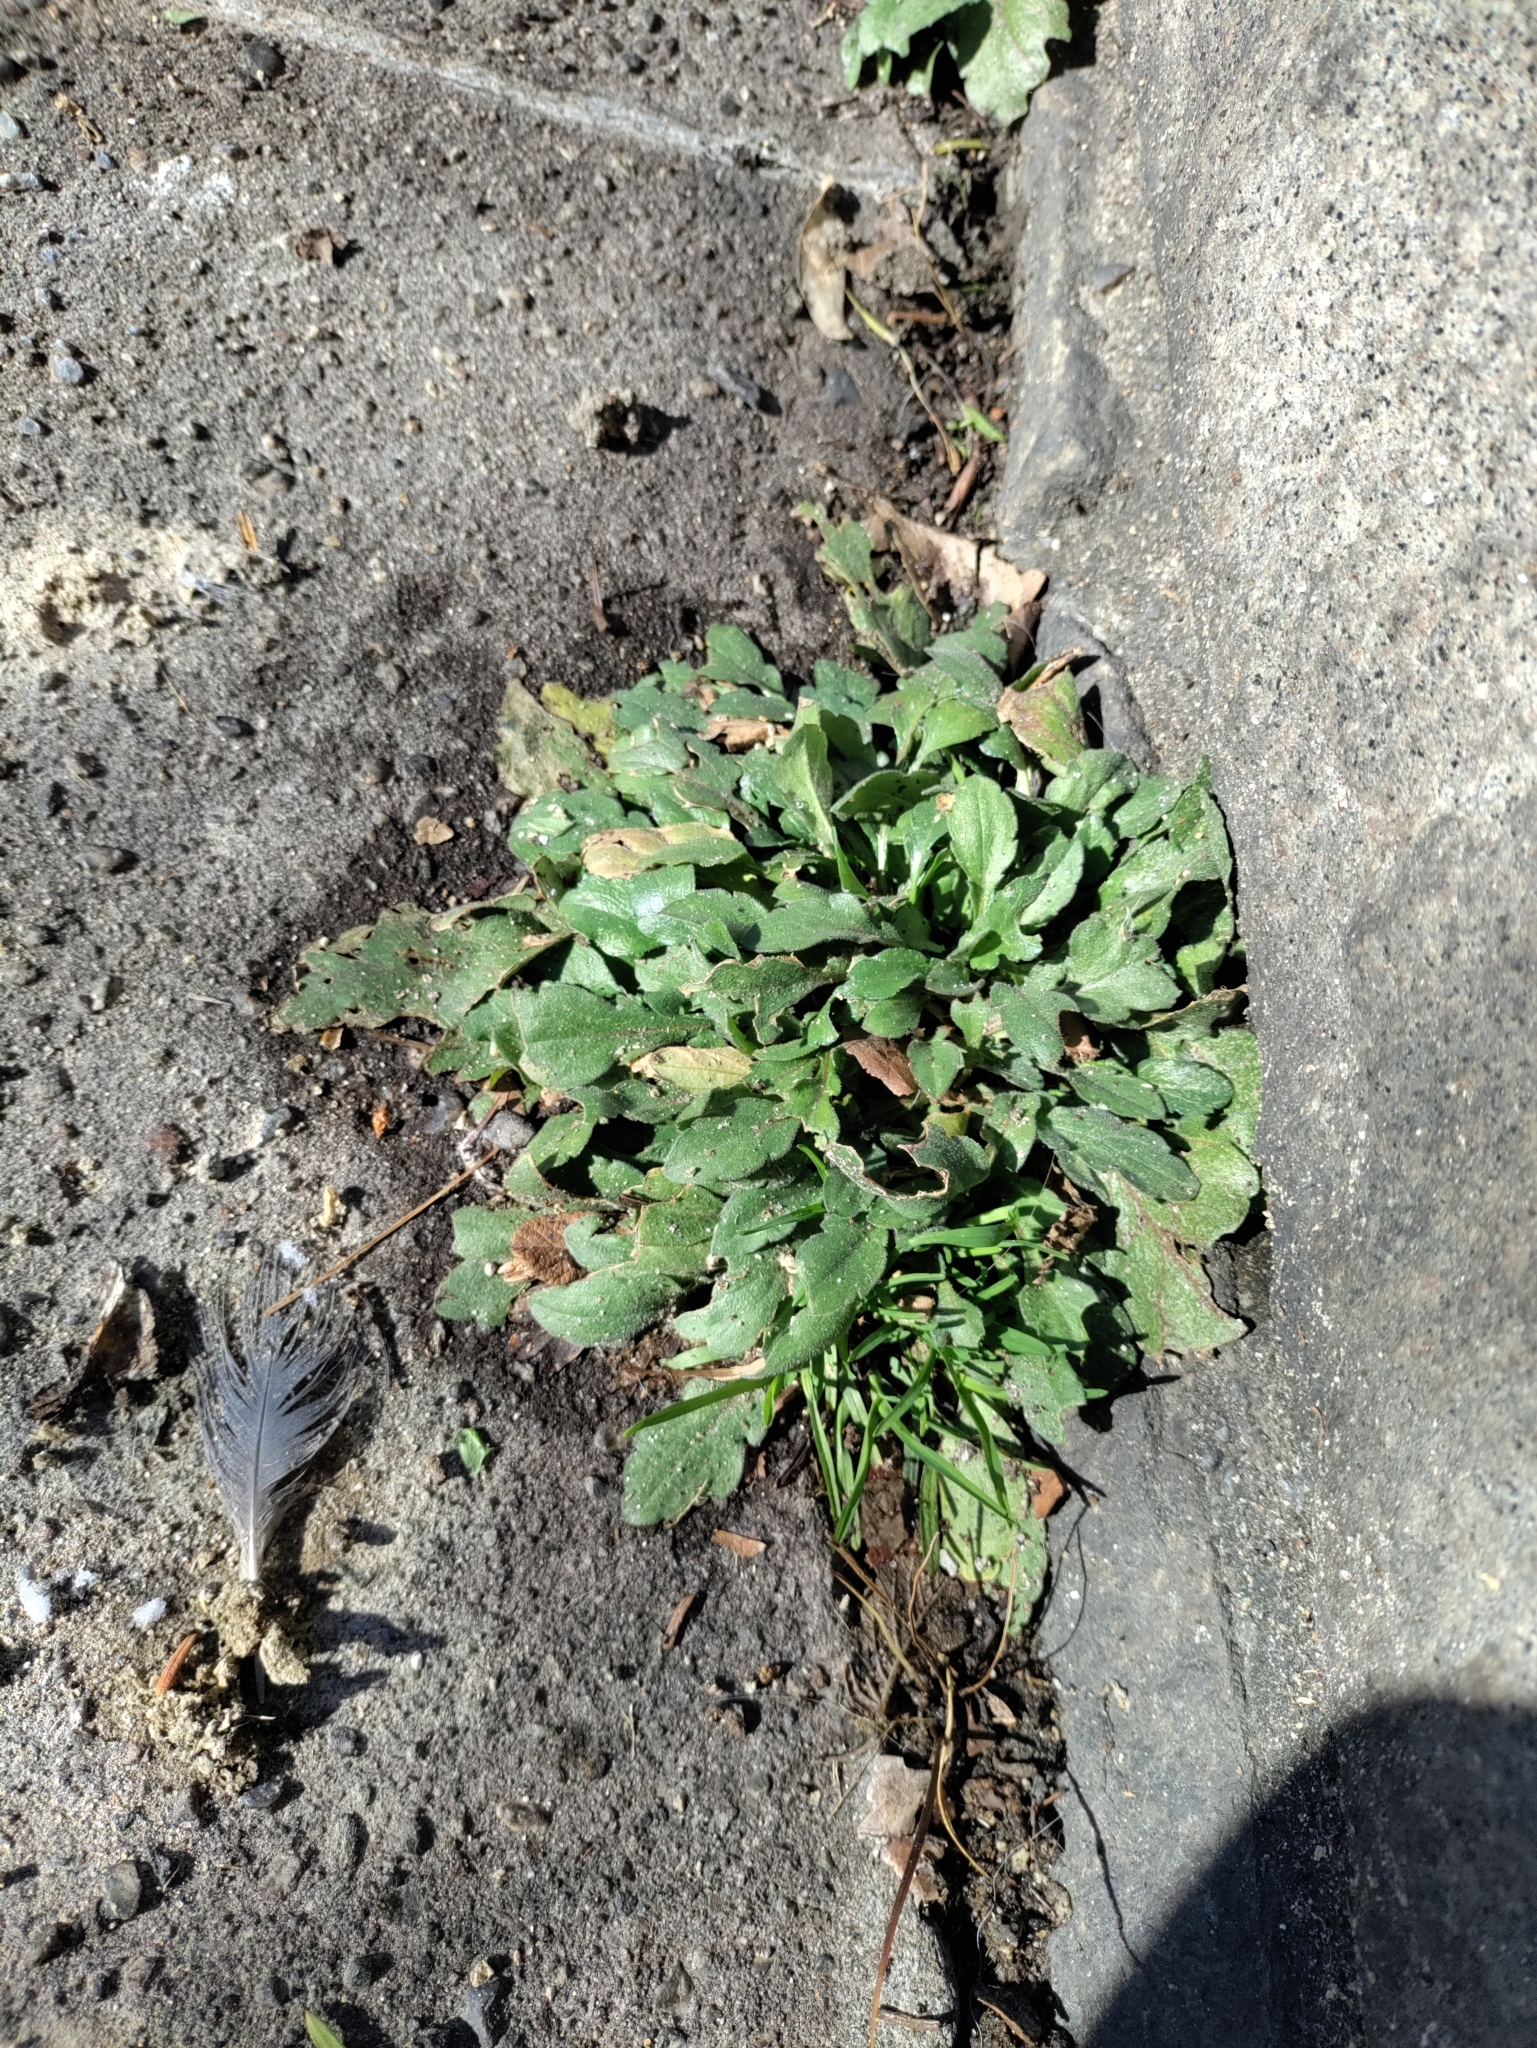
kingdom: Plantae
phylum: Tracheophyta
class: Magnoliopsida
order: Asterales
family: Asteraceae
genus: Erigeron
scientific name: Erigeron canadensis
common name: Canadian fleabane
